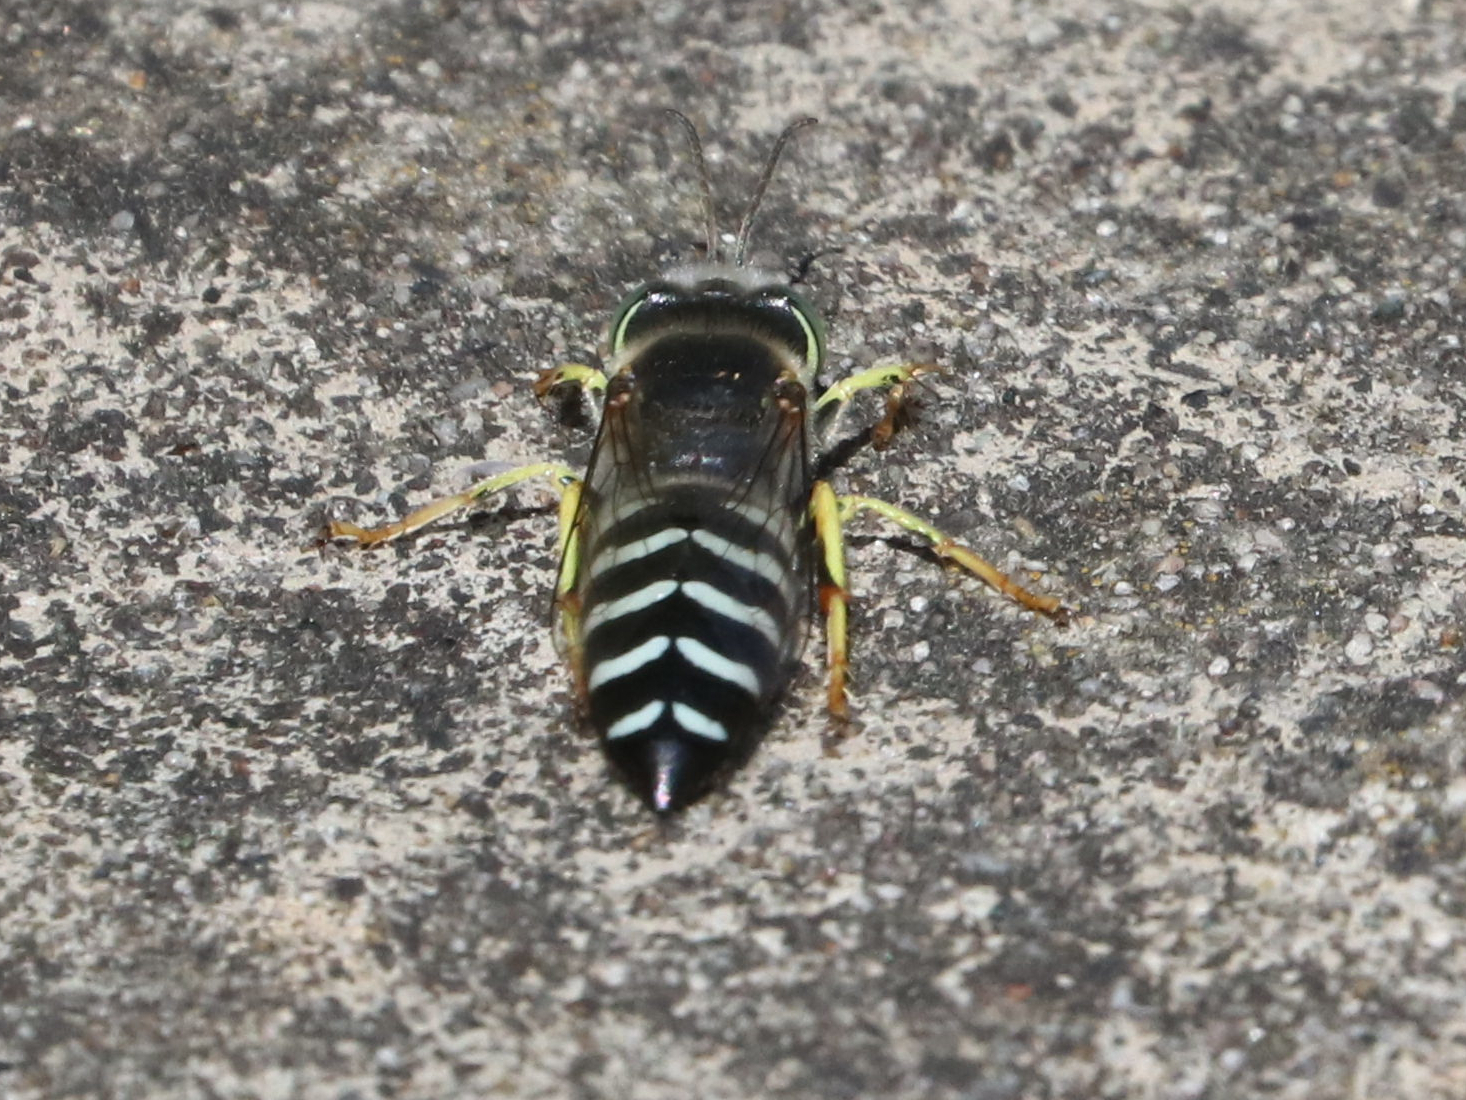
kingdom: Animalia
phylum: Arthropoda
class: Insecta
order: Hymenoptera
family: Crabronidae
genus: Bembix
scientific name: Bembix americana
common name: American sand wasp
